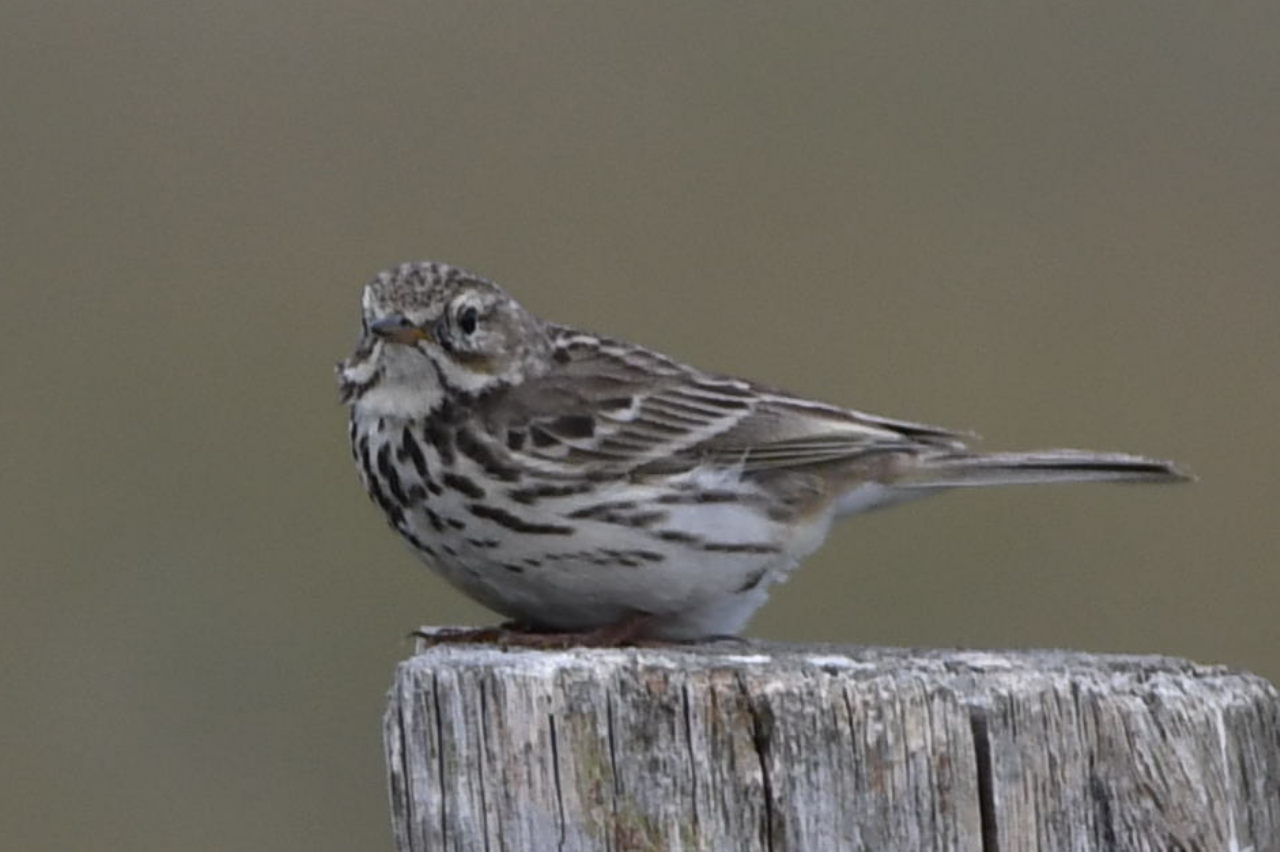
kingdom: Animalia
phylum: Chordata
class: Aves
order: Passeriformes
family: Motacillidae
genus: Anthus
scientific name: Anthus pratensis
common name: Meadow pipit
